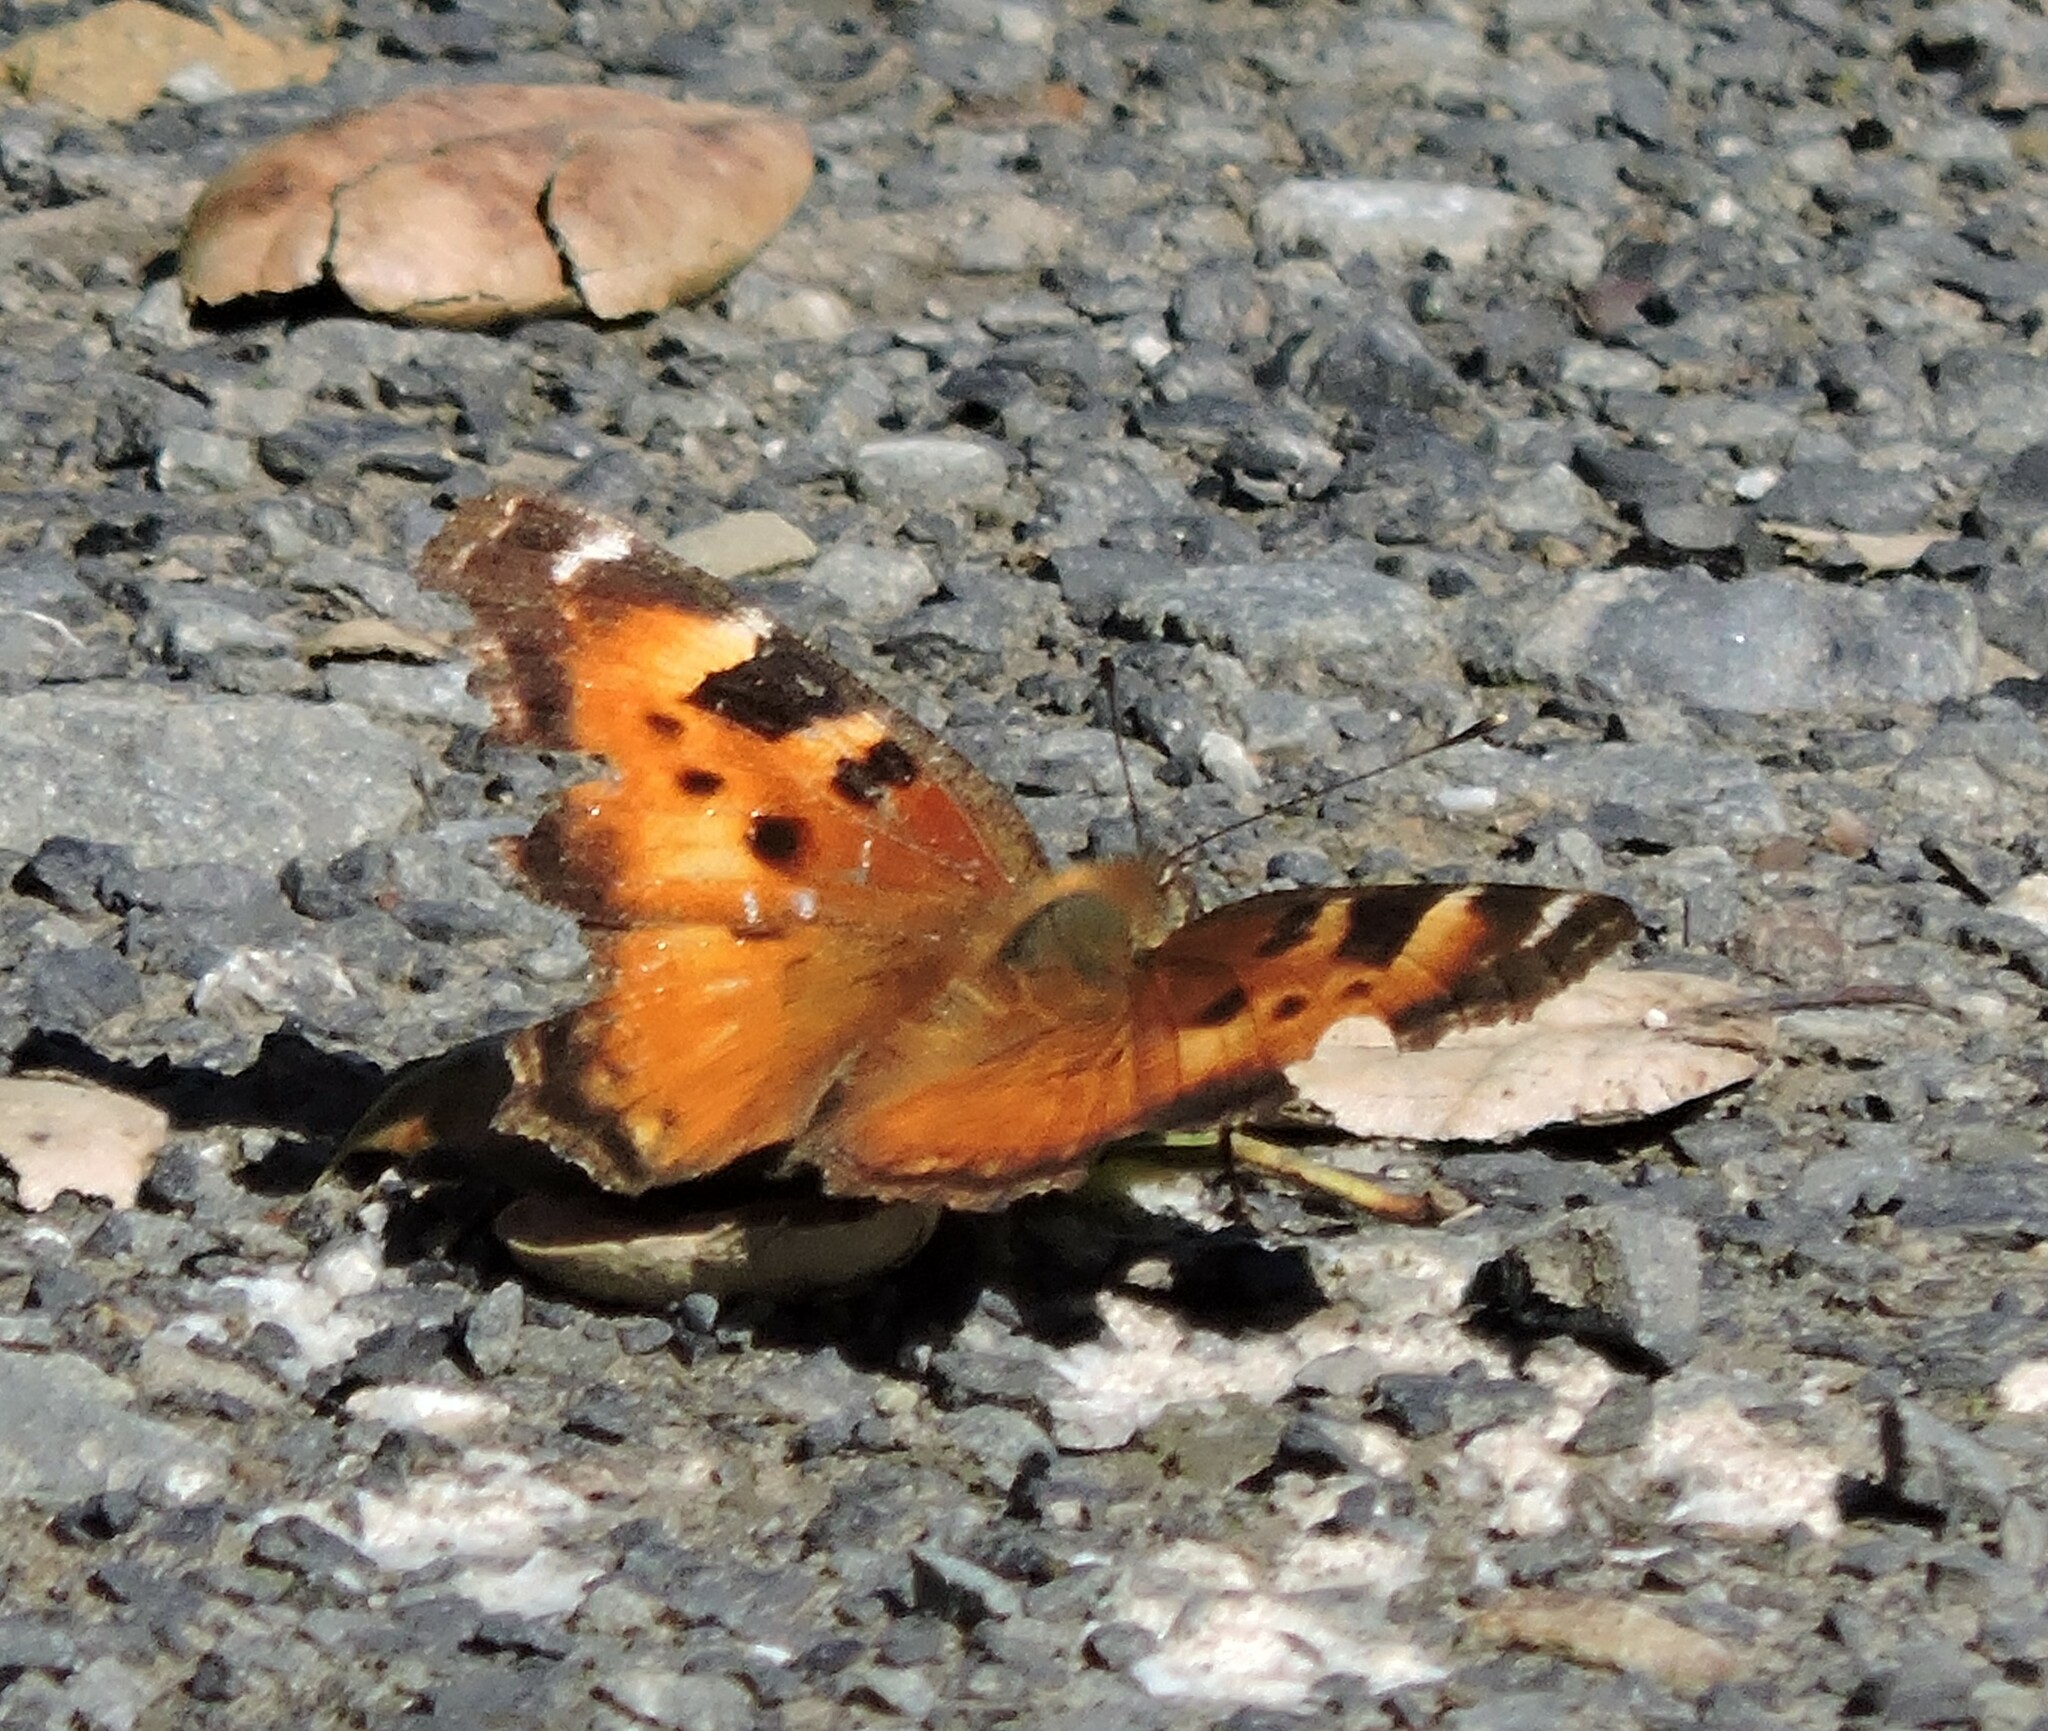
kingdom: Animalia
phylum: Arthropoda
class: Insecta
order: Lepidoptera
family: Nymphalidae
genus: Nymphalis
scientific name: Nymphalis californica
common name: California tortoiseshell
